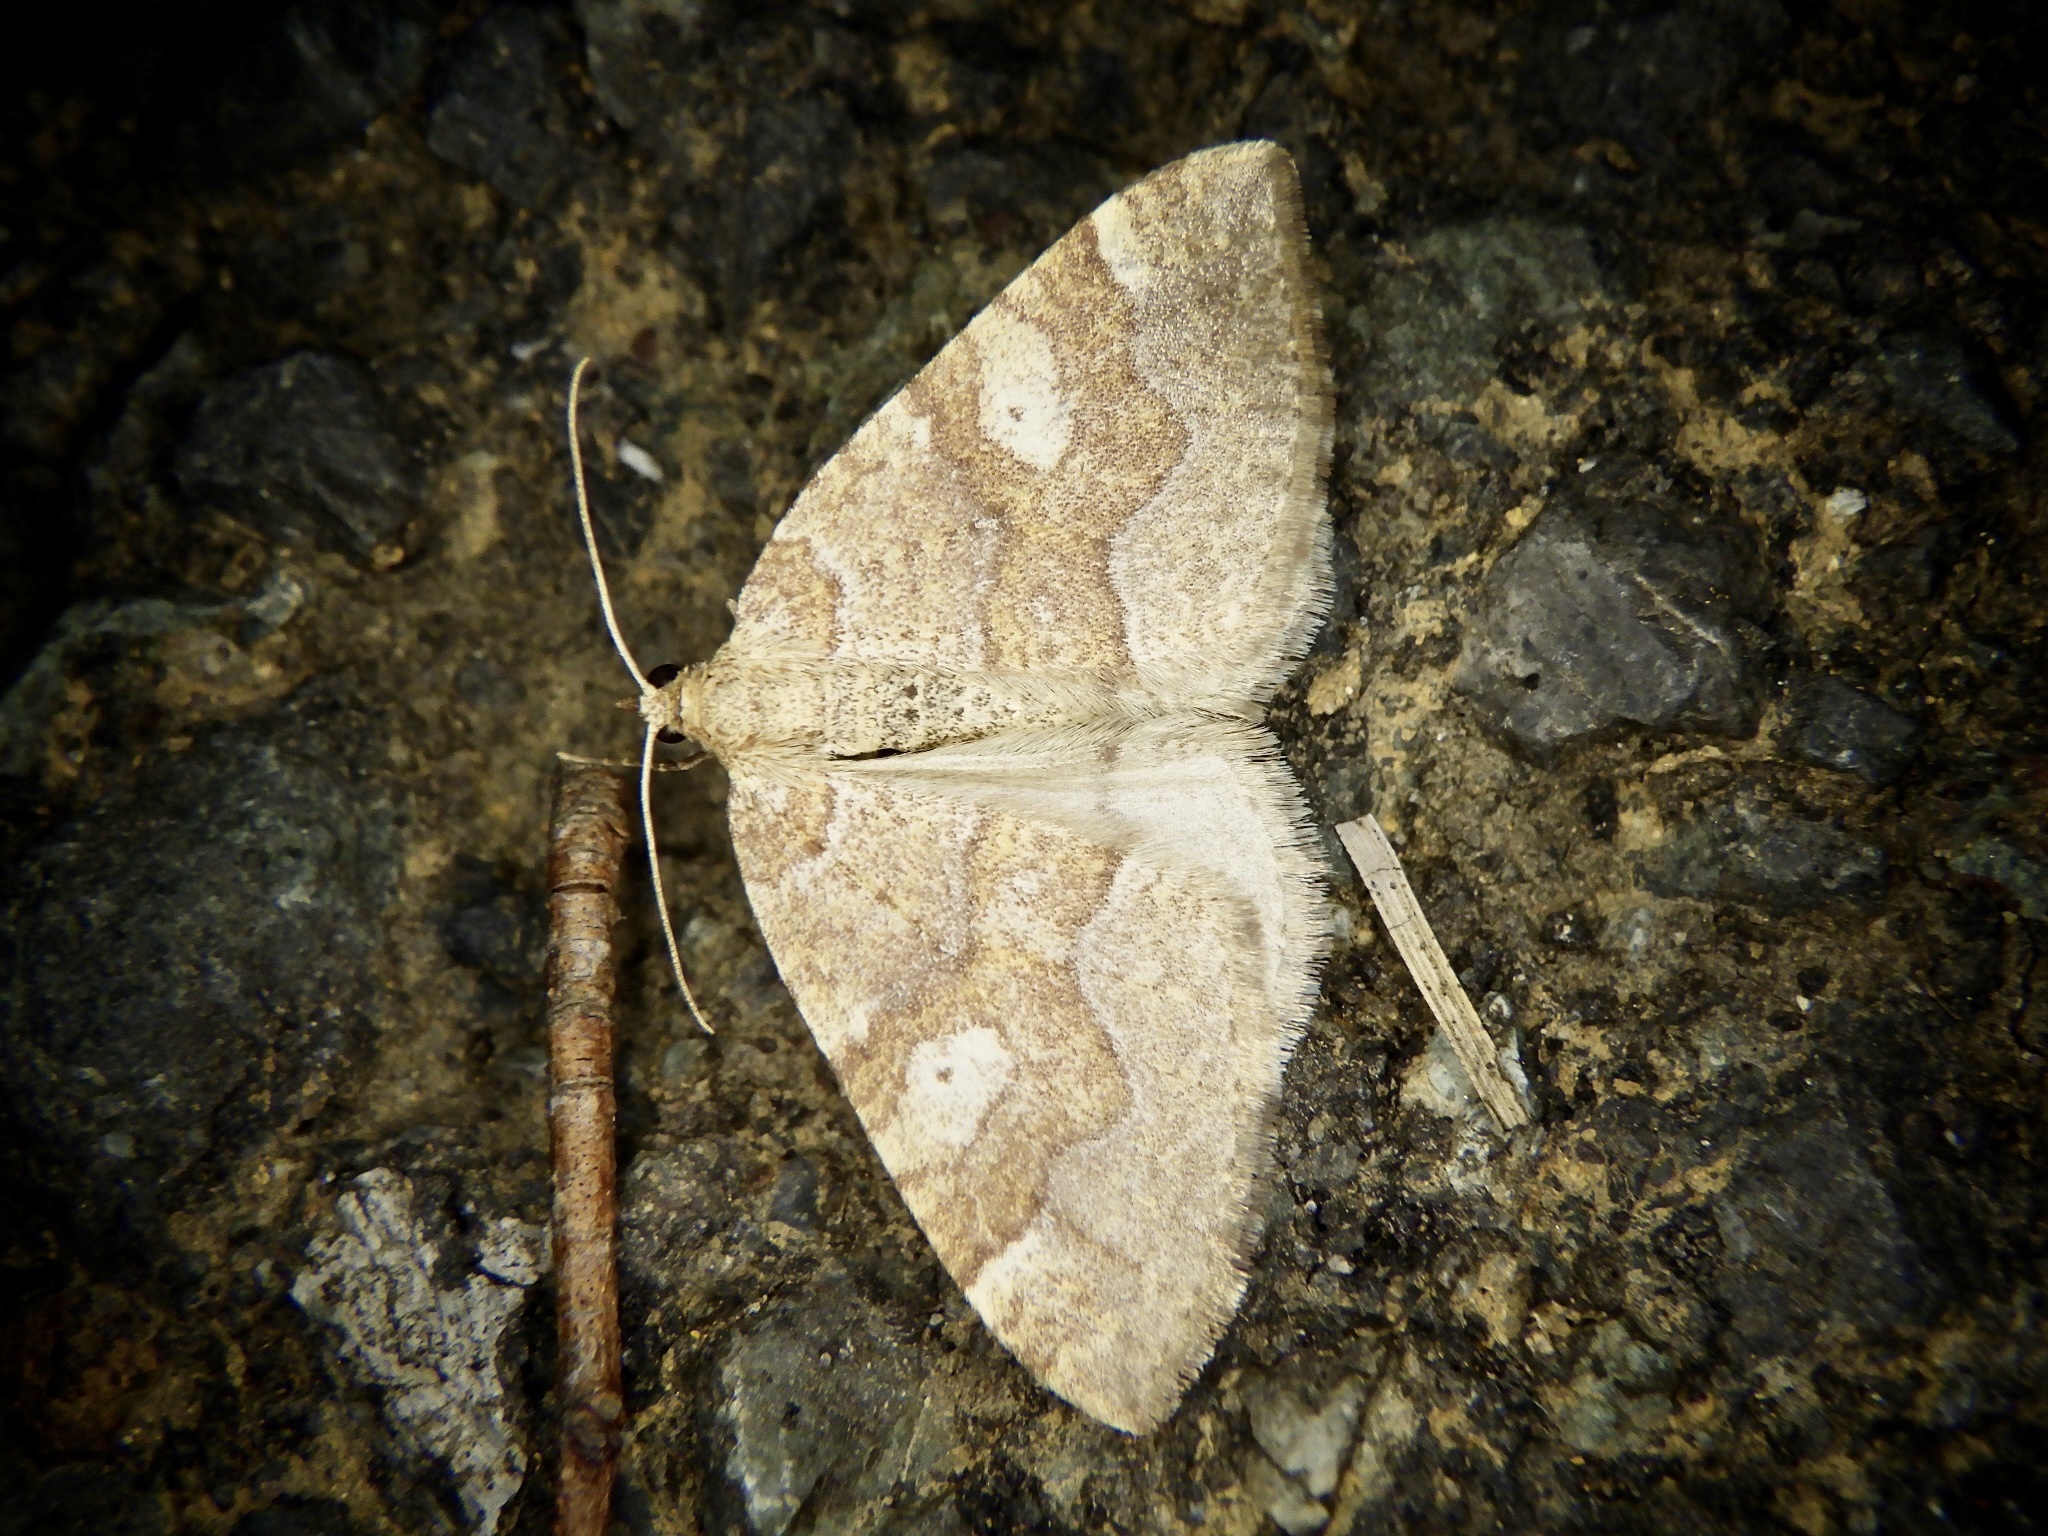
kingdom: Animalia
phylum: Arthropoda
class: Insecta
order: Lepidoptera
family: Geometridae
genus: Idiotephria
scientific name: Idiotephria evanescens
